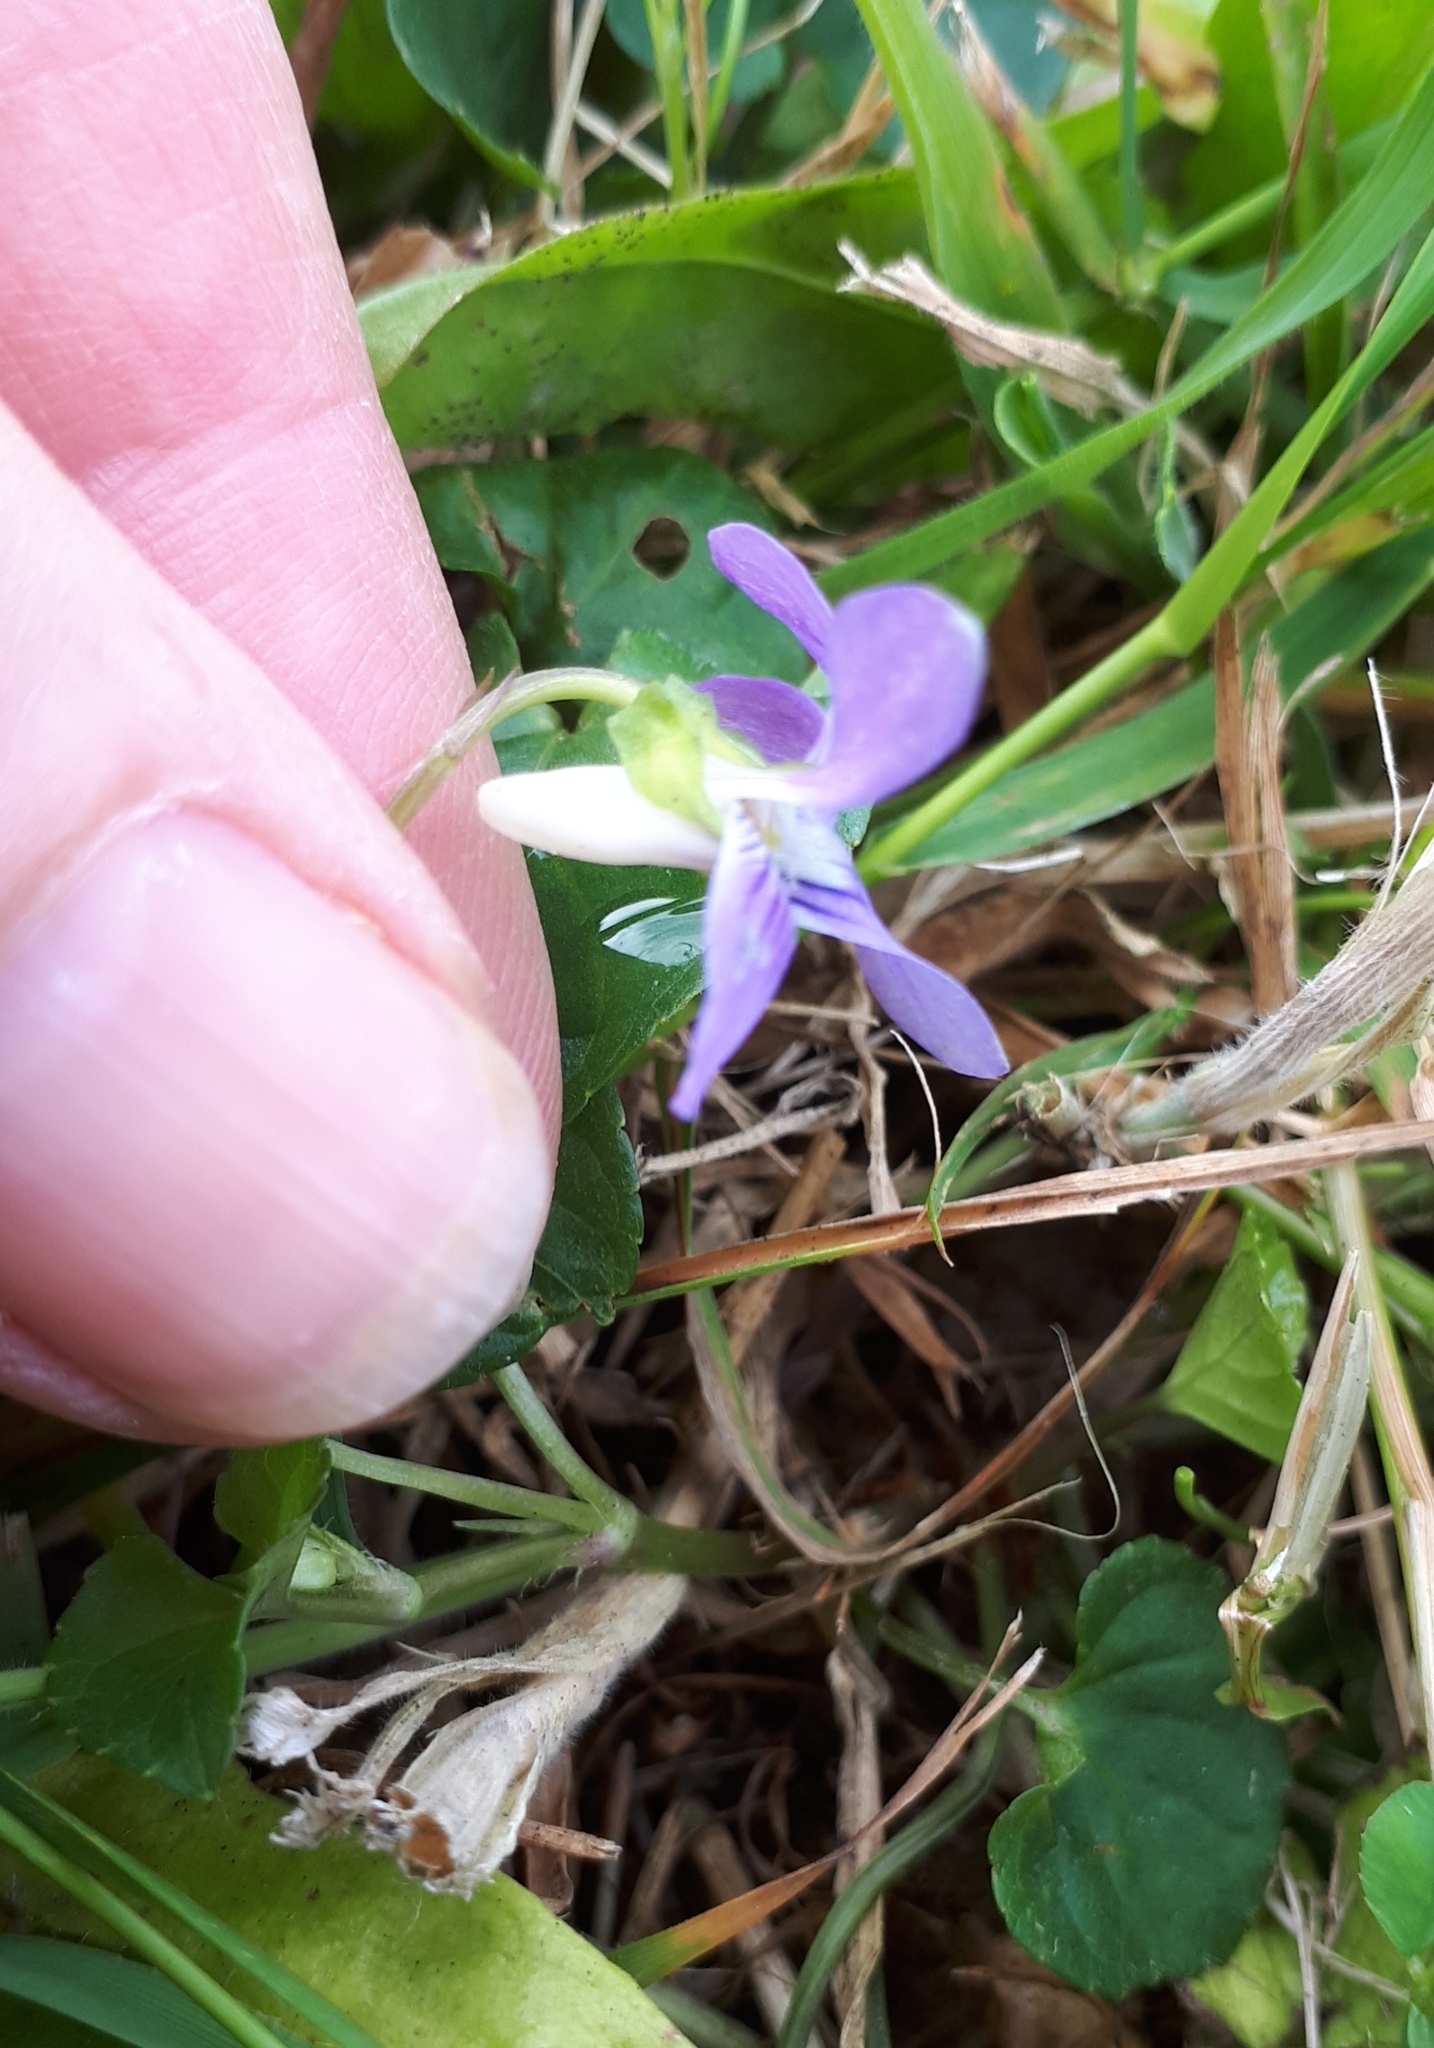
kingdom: Plantae
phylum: Tracheophyta
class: Magnoliopsida
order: Malpighiales
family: Violaceae
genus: Viola
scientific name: Viola riviniana
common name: Common dog-violet
